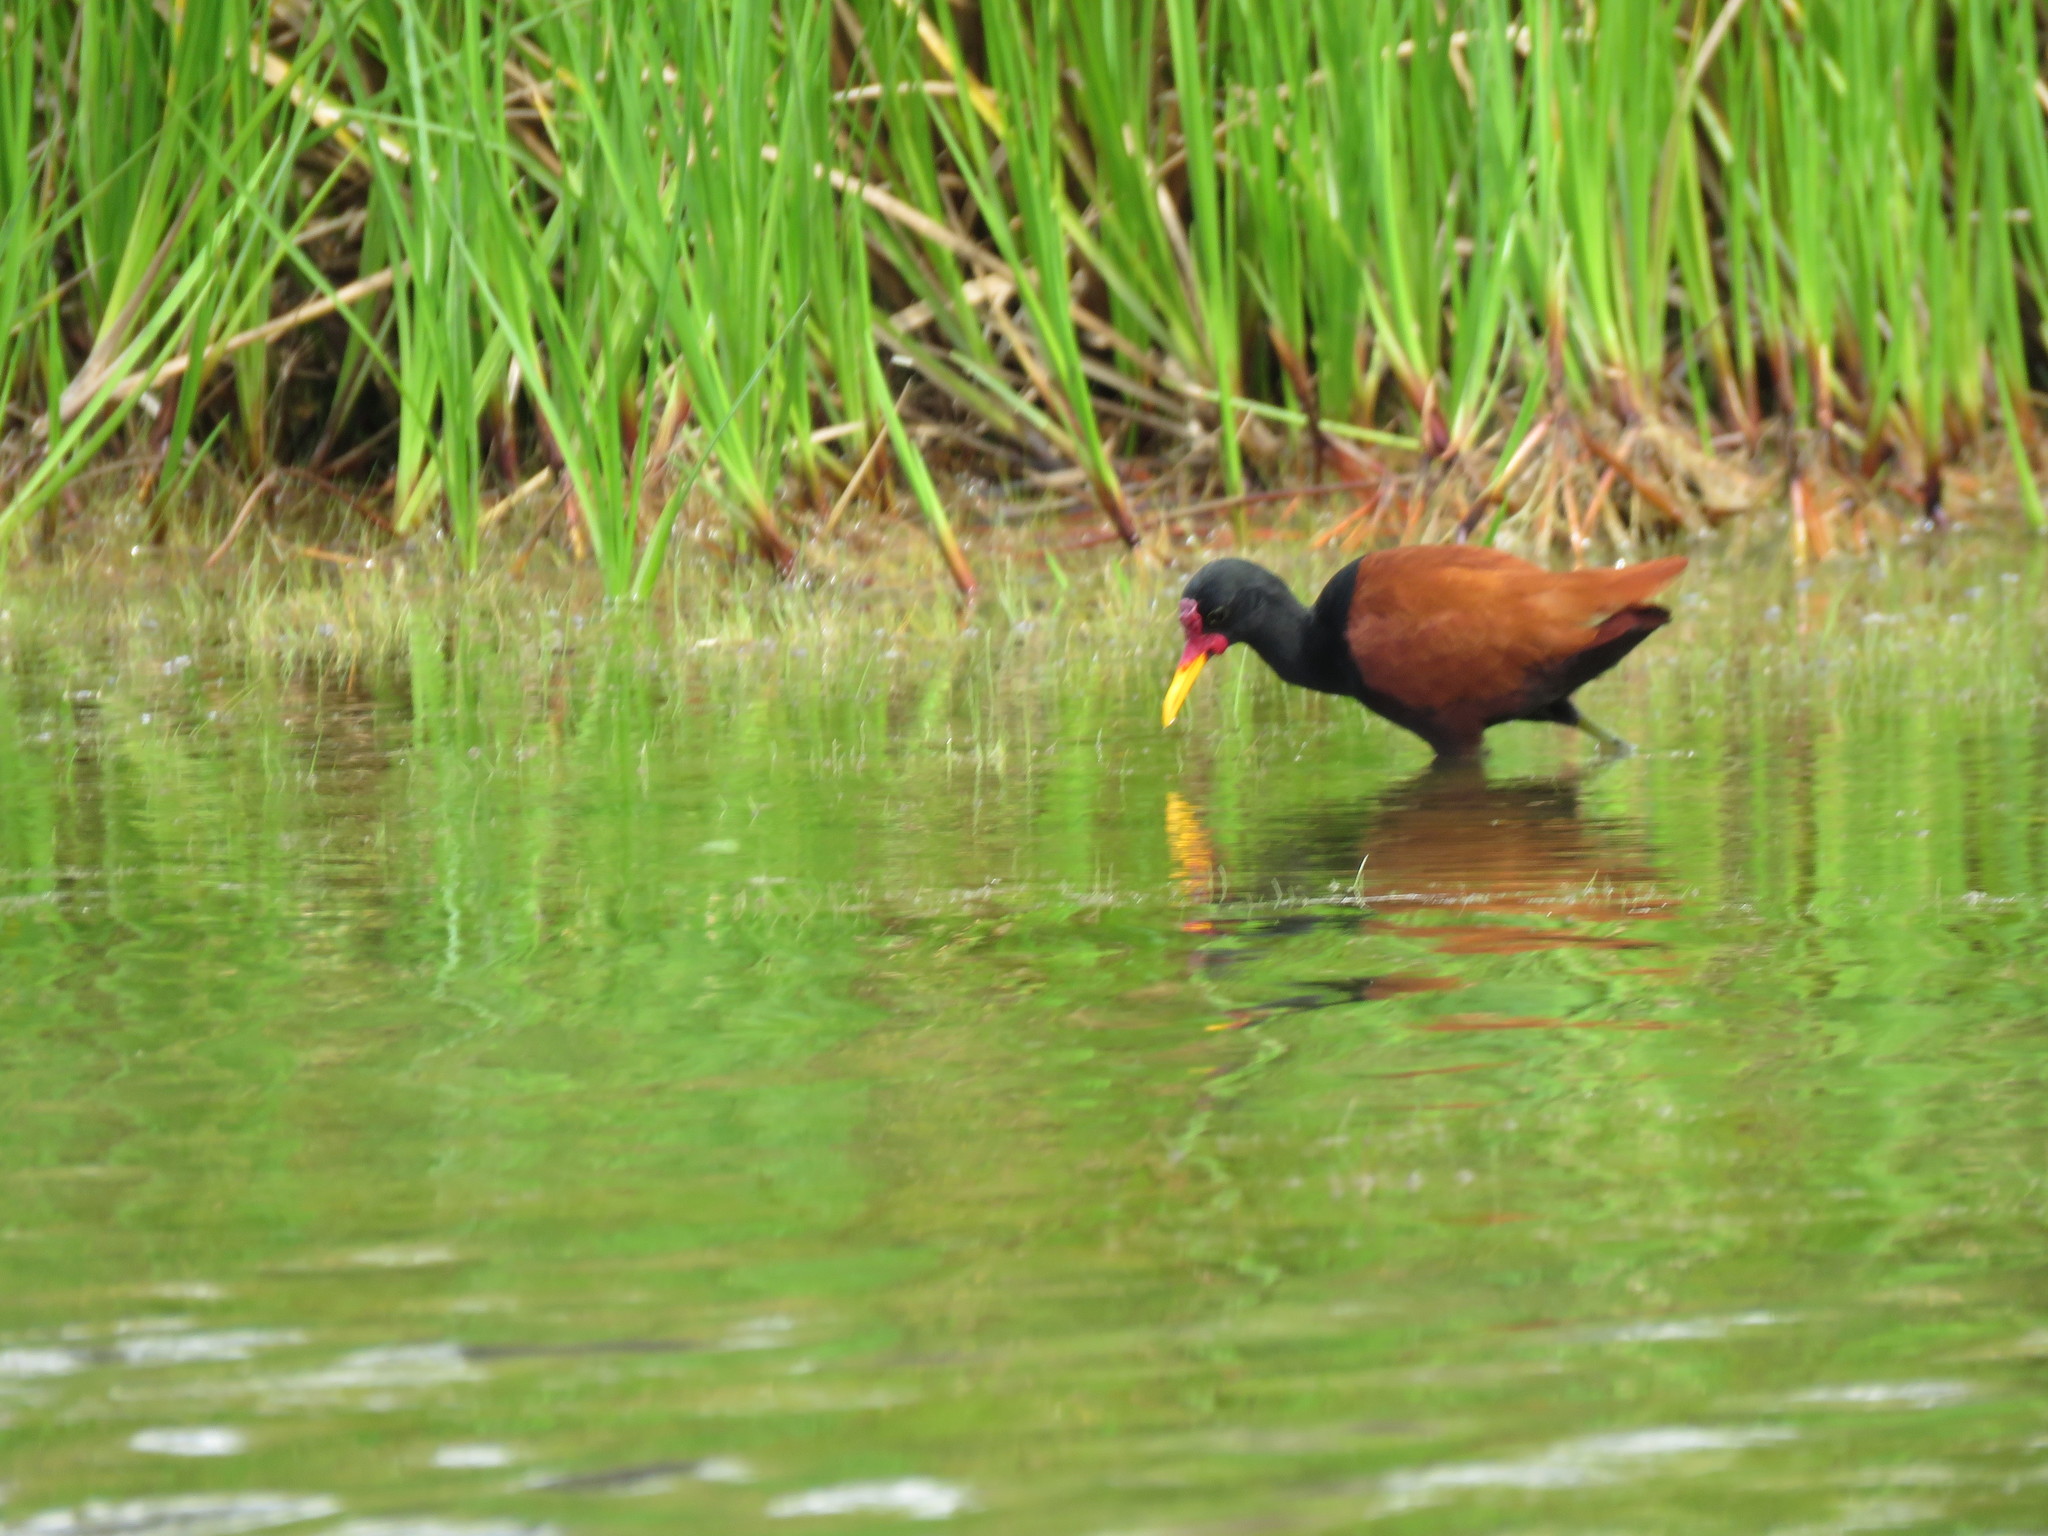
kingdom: Animalia
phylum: Chordata
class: Aves
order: Charadriiformes
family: Jacanidae
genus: Jacana
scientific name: Jacana jacana
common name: Wattled jacana
